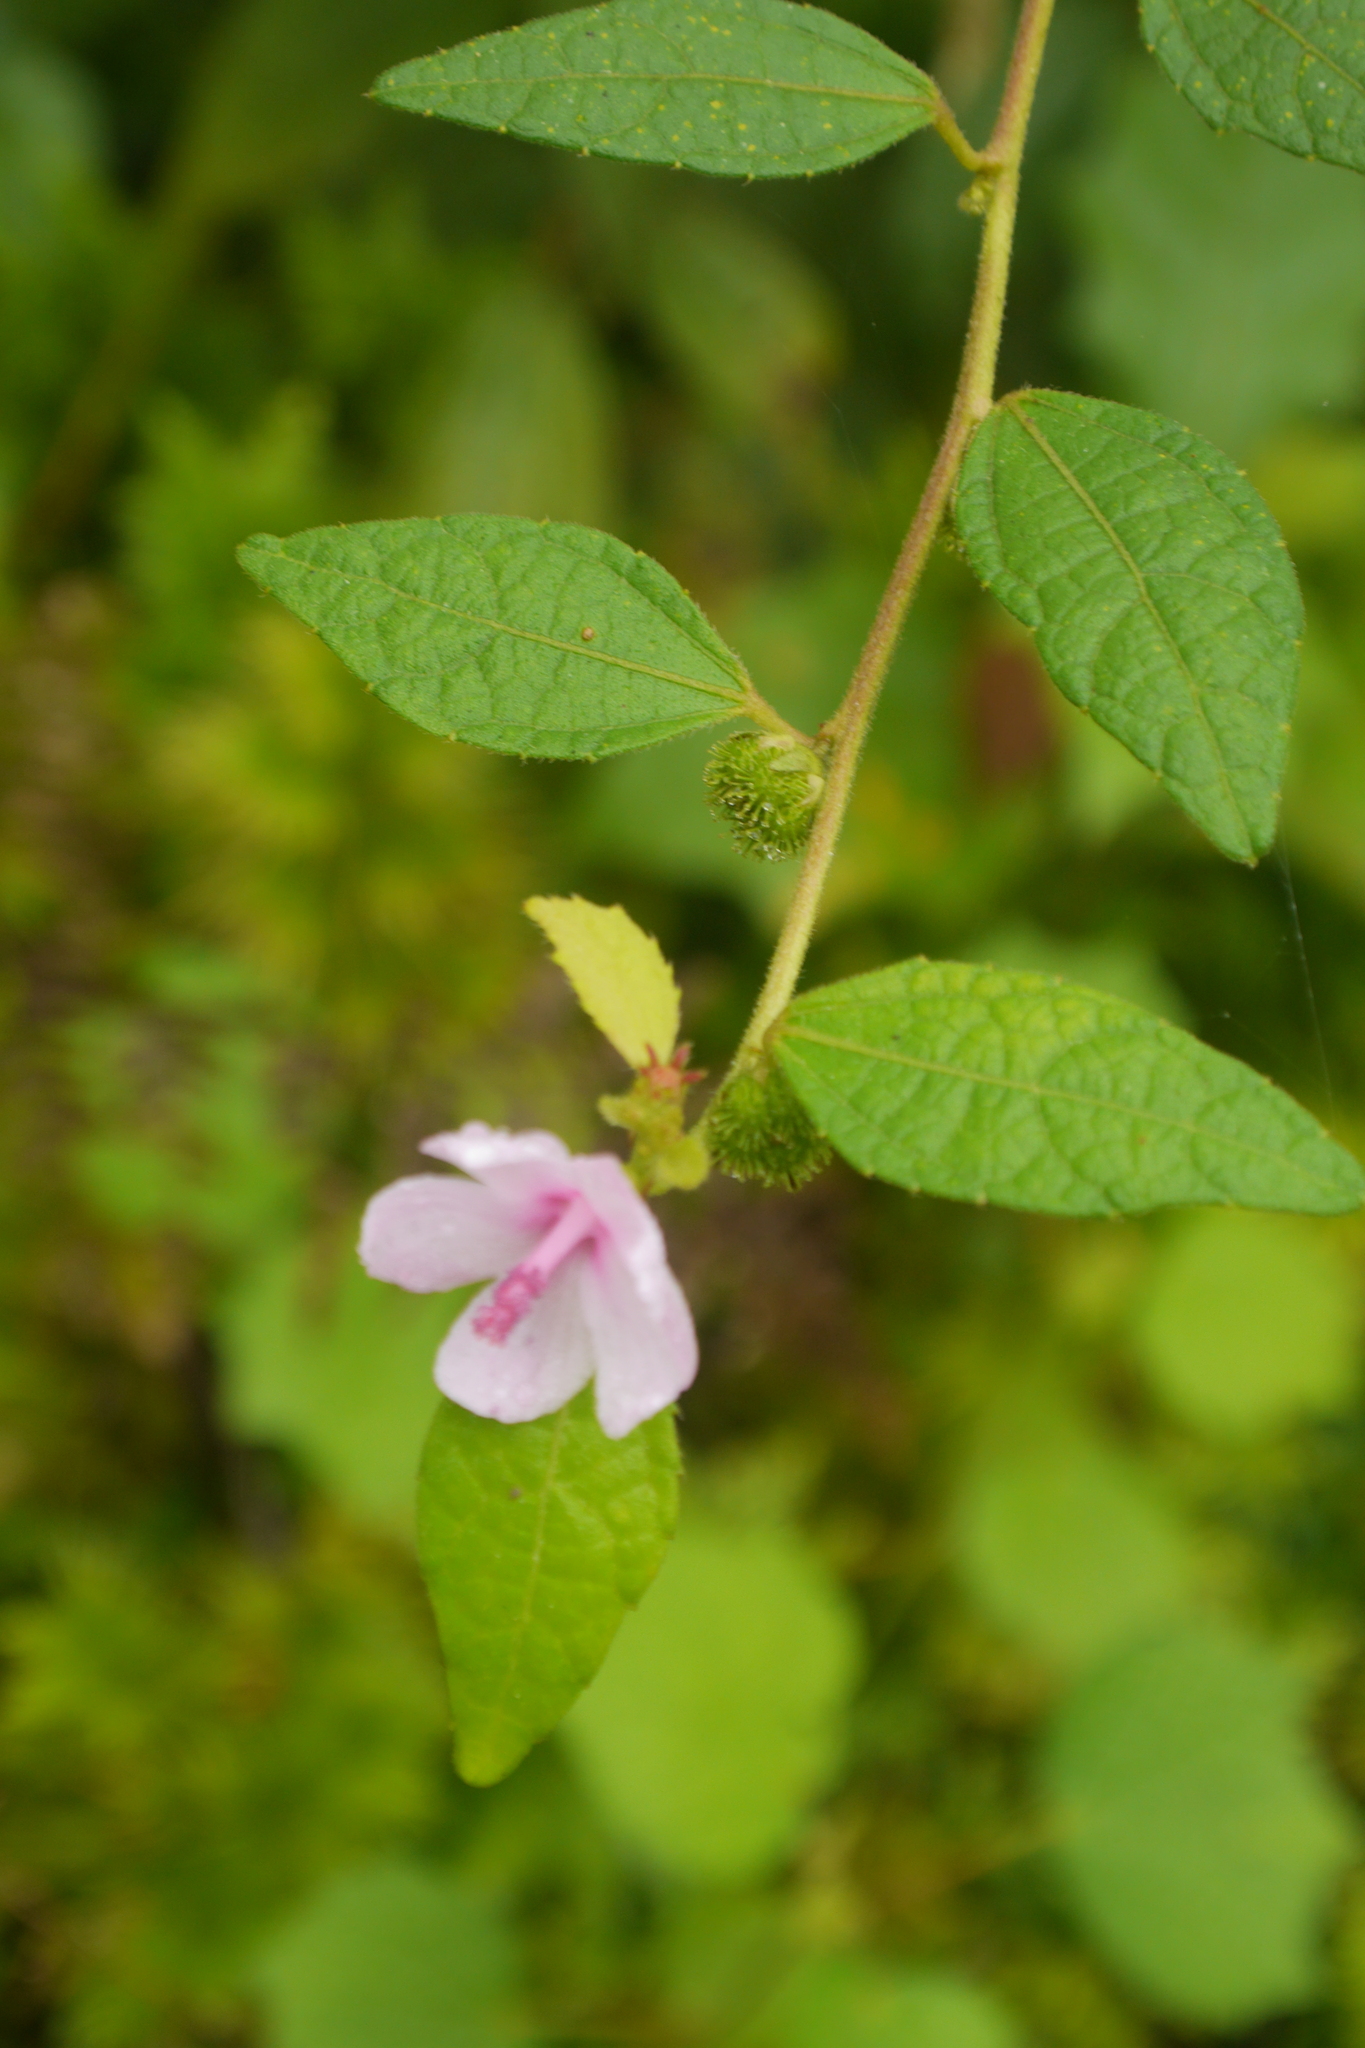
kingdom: Plantae
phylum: Tracheophyta
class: Magnoliopsida
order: Malvales
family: Malvaceae
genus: Urena
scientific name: Urena lobata
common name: Caesarweed
